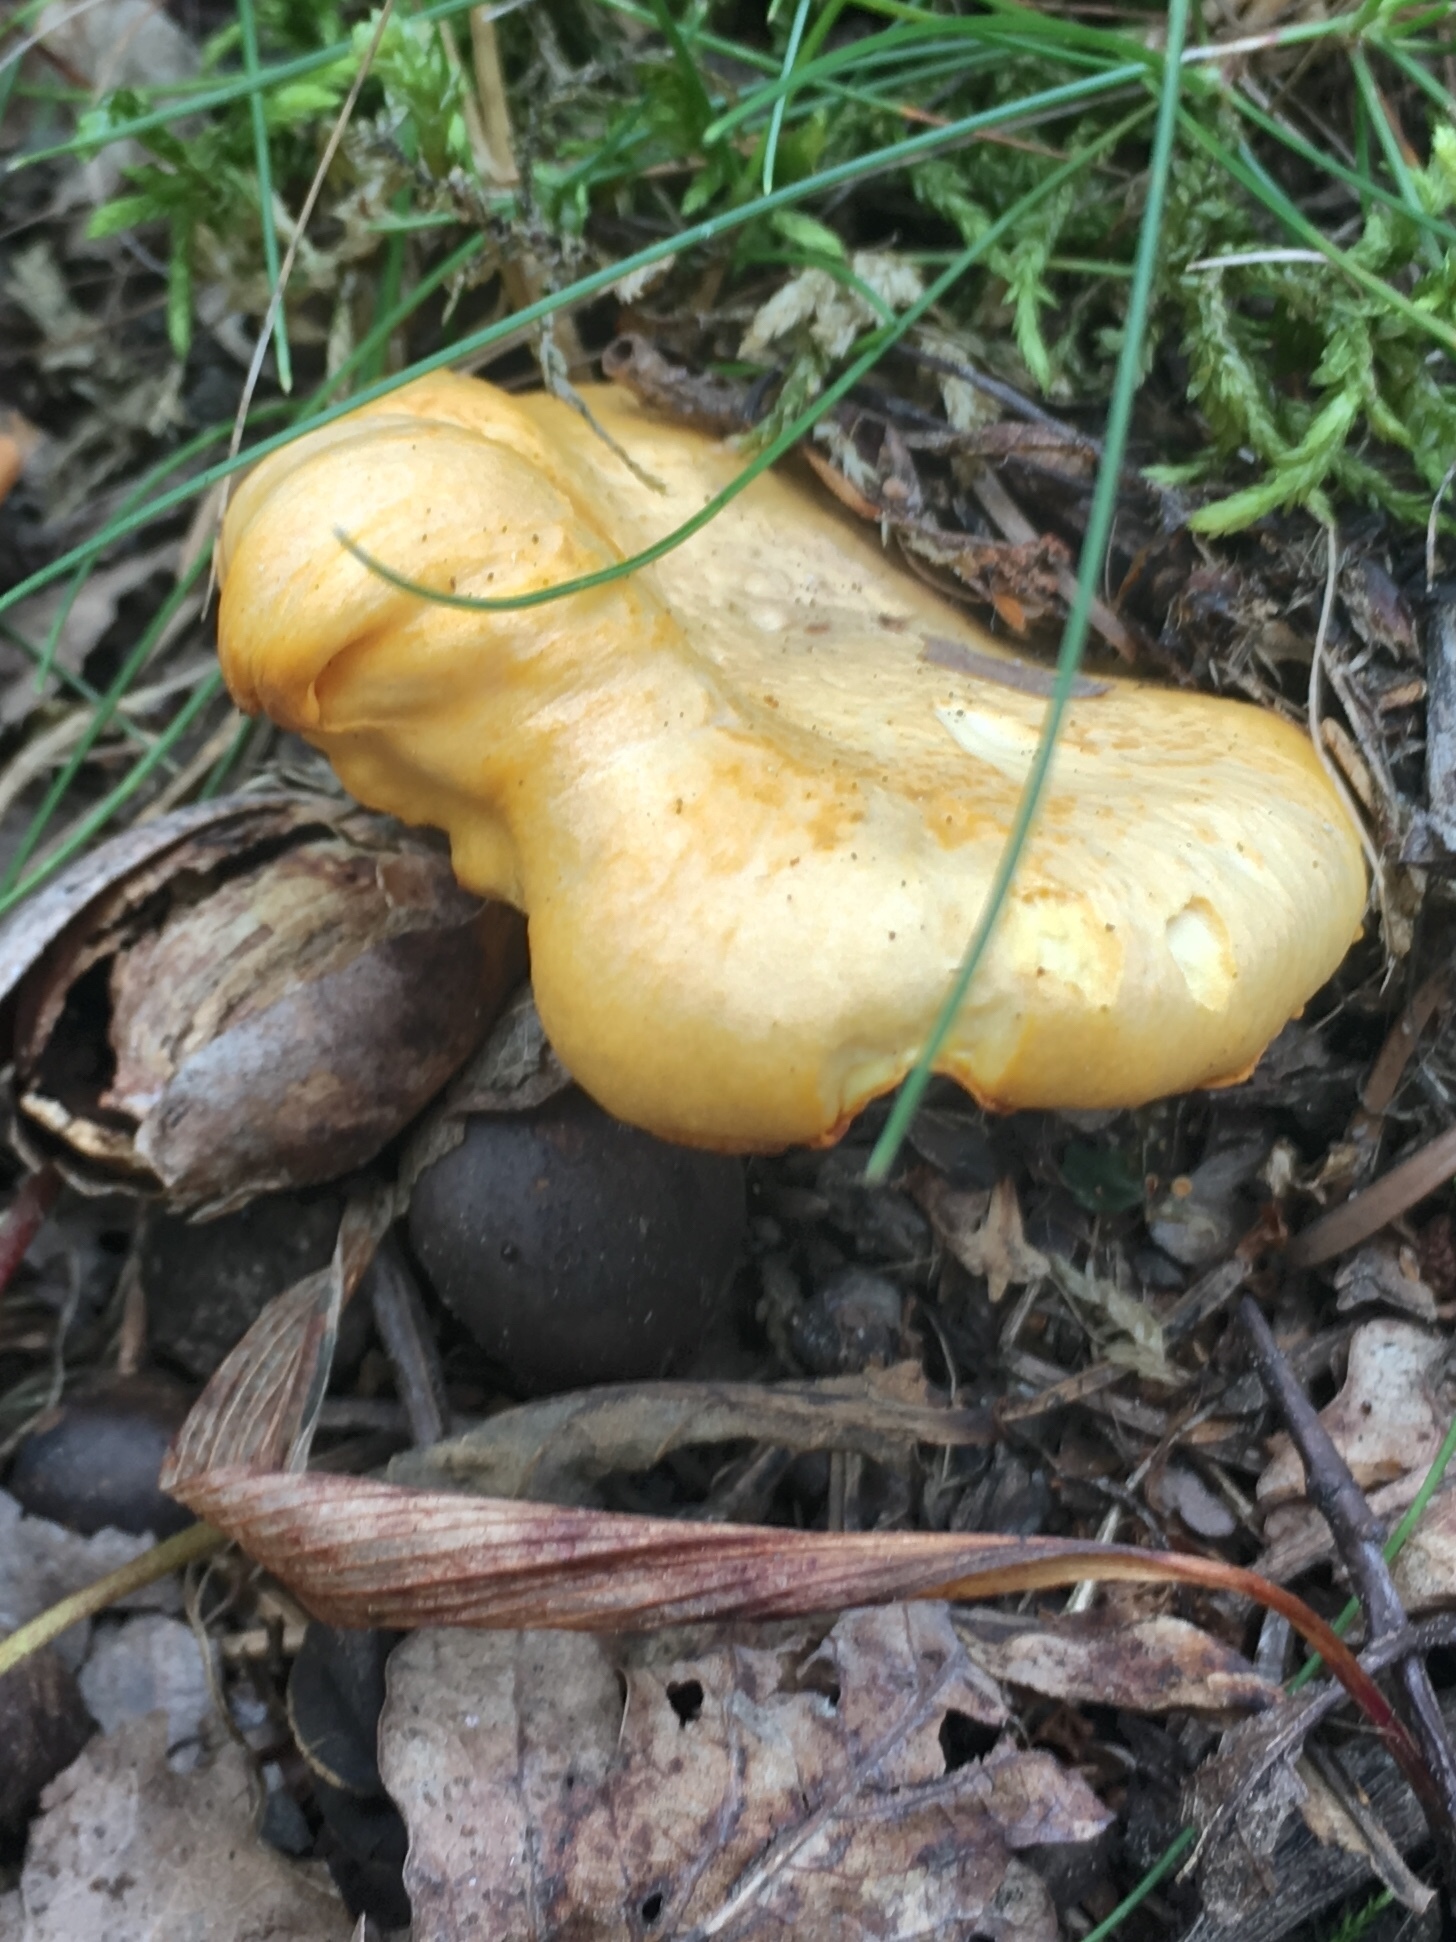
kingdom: Fungi
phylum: Basidiomycota
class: Agaricomycetes
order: Cantharellales
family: Hydnaceae
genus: Cantharellus
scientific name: Cantharellus cibarius
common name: Chanterelle
